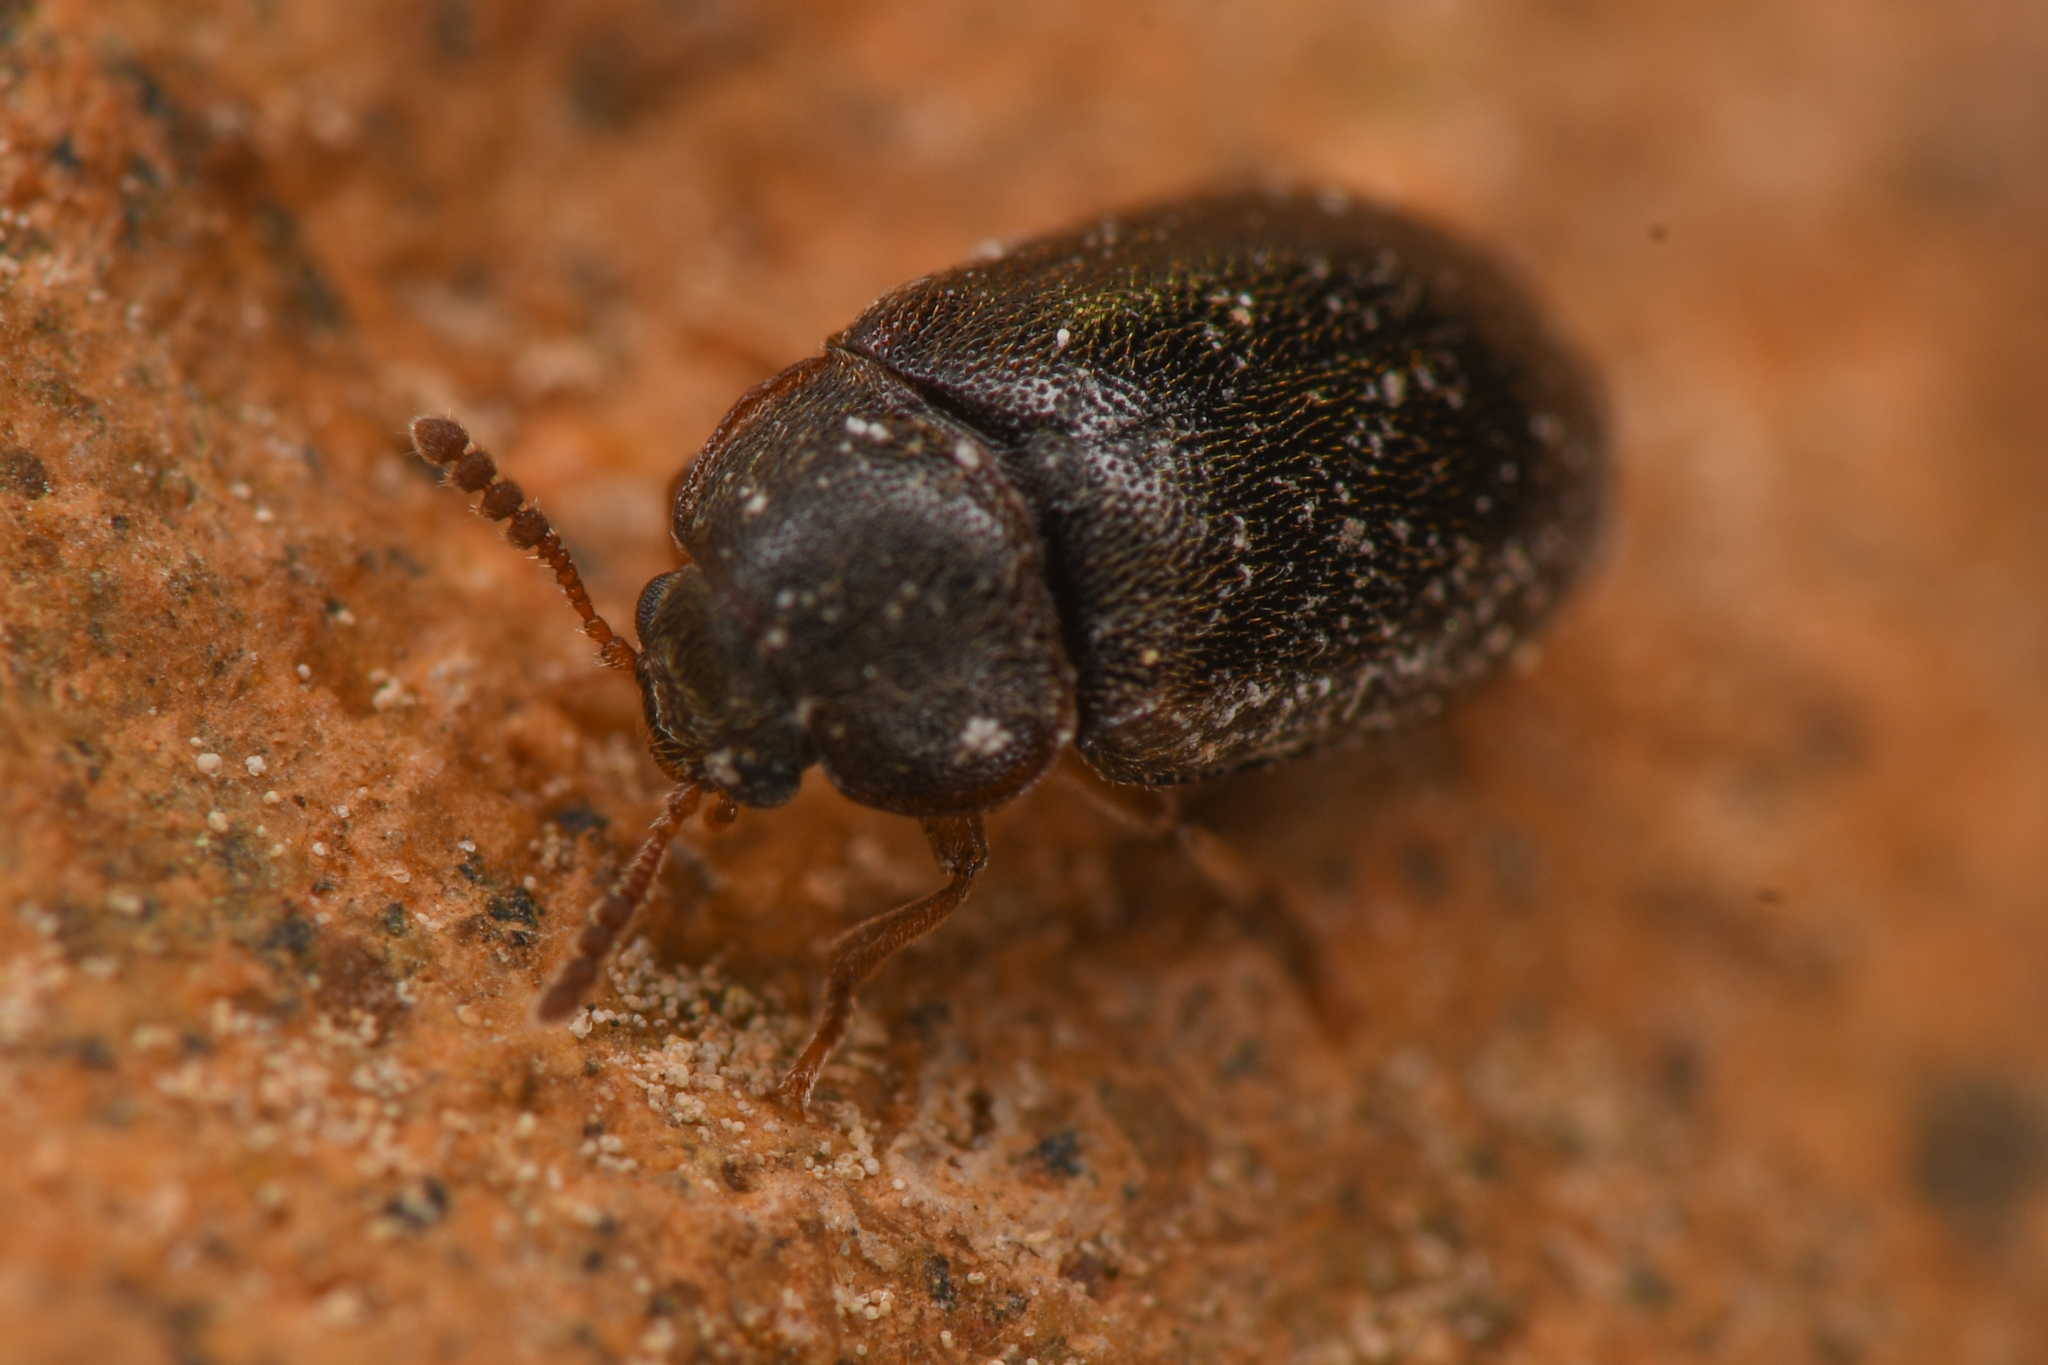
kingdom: Animalia
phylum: Arthropoda
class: Insecta
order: Coleoptera
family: Tetratomidae
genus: Tetratoma
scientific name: Tetratoma concolor
